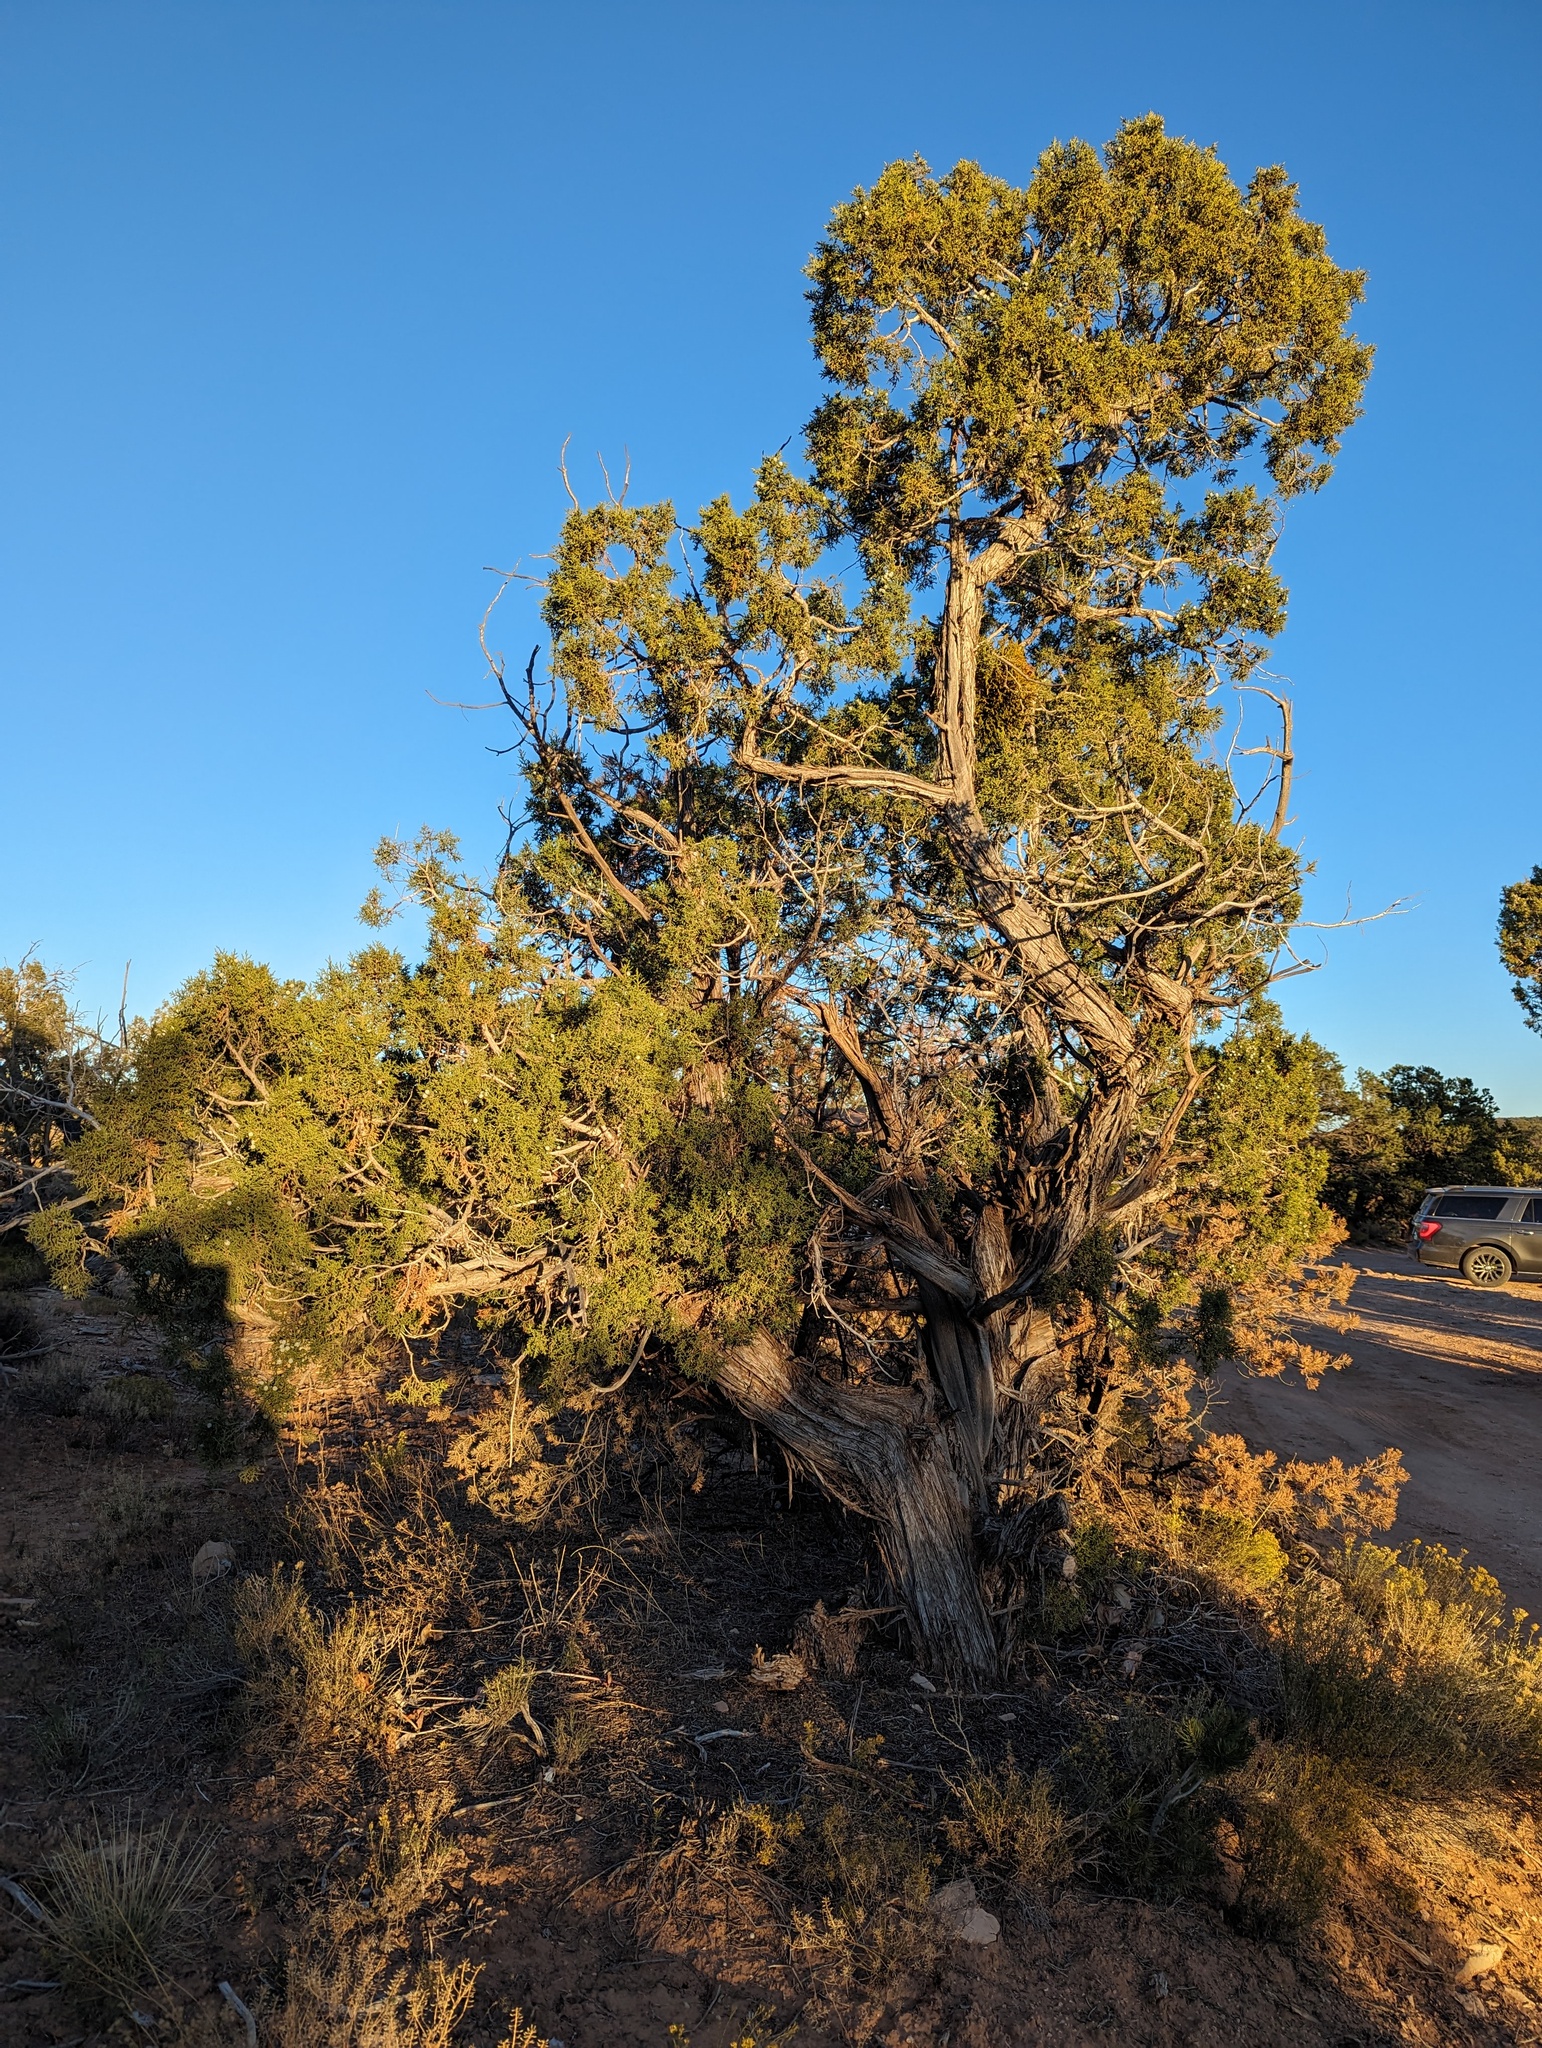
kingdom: Plantae
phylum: Tracheophyta
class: Pinopsida
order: Pinales
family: Cupressaceae
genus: Juniperus
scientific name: Juniperus osteosperma
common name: Utah juniper
